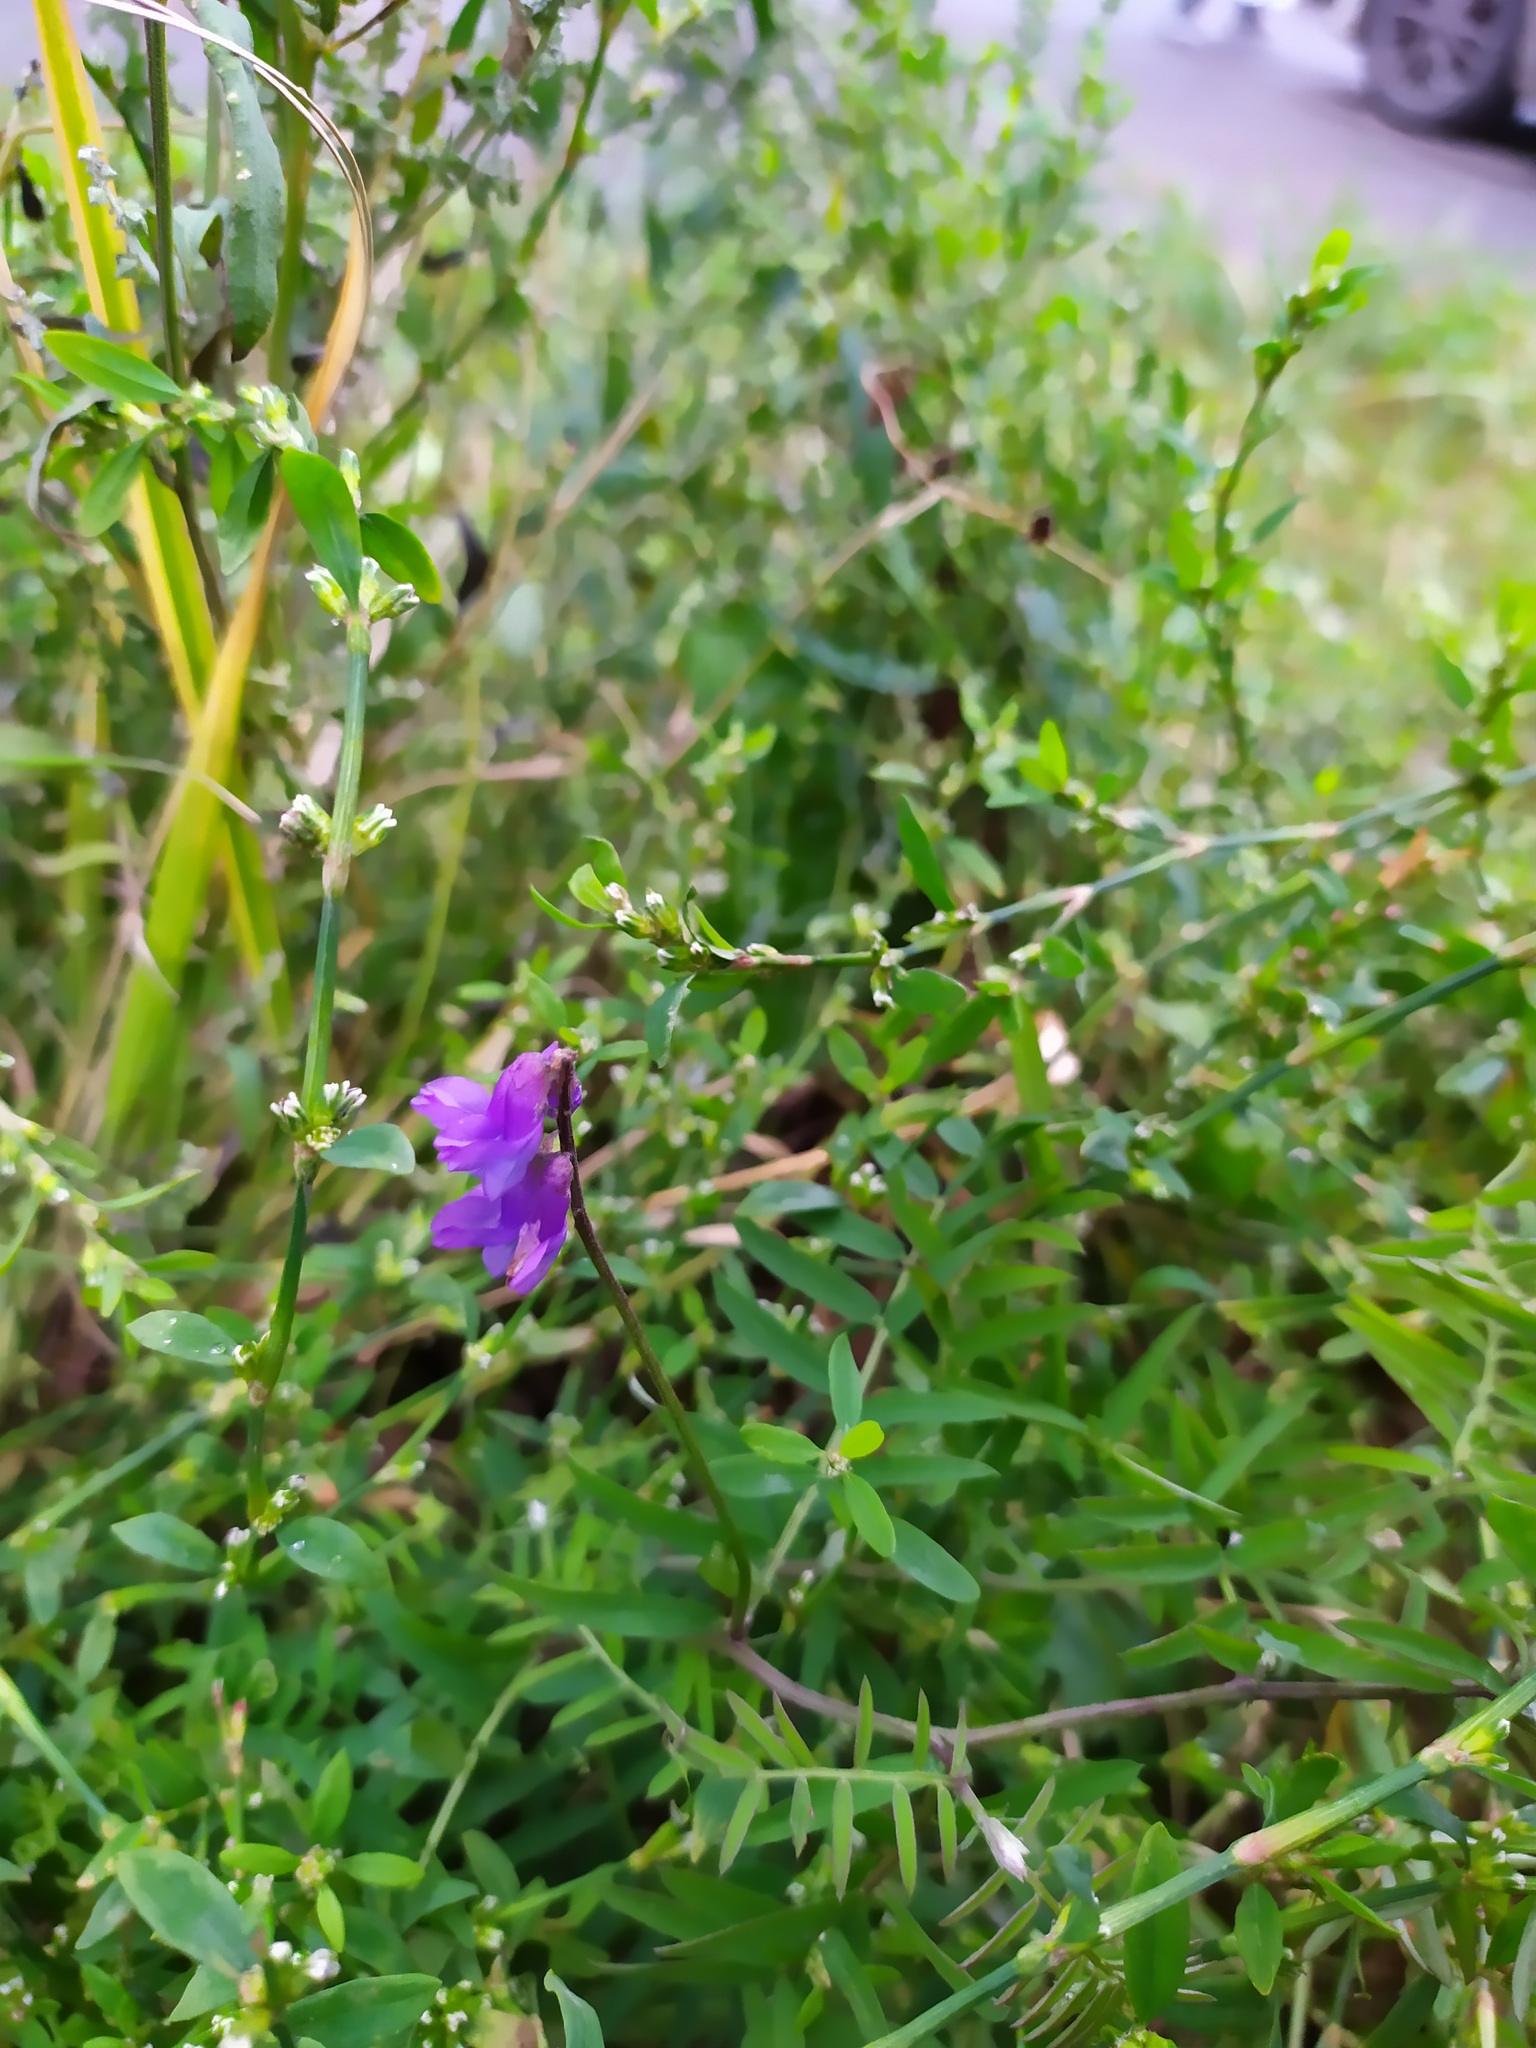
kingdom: Plantae
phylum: Tracheophyta
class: Magnoliopsida
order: Fabales
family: Fabaceae
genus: Vicia
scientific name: Vicia cracca
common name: Bird vetch
